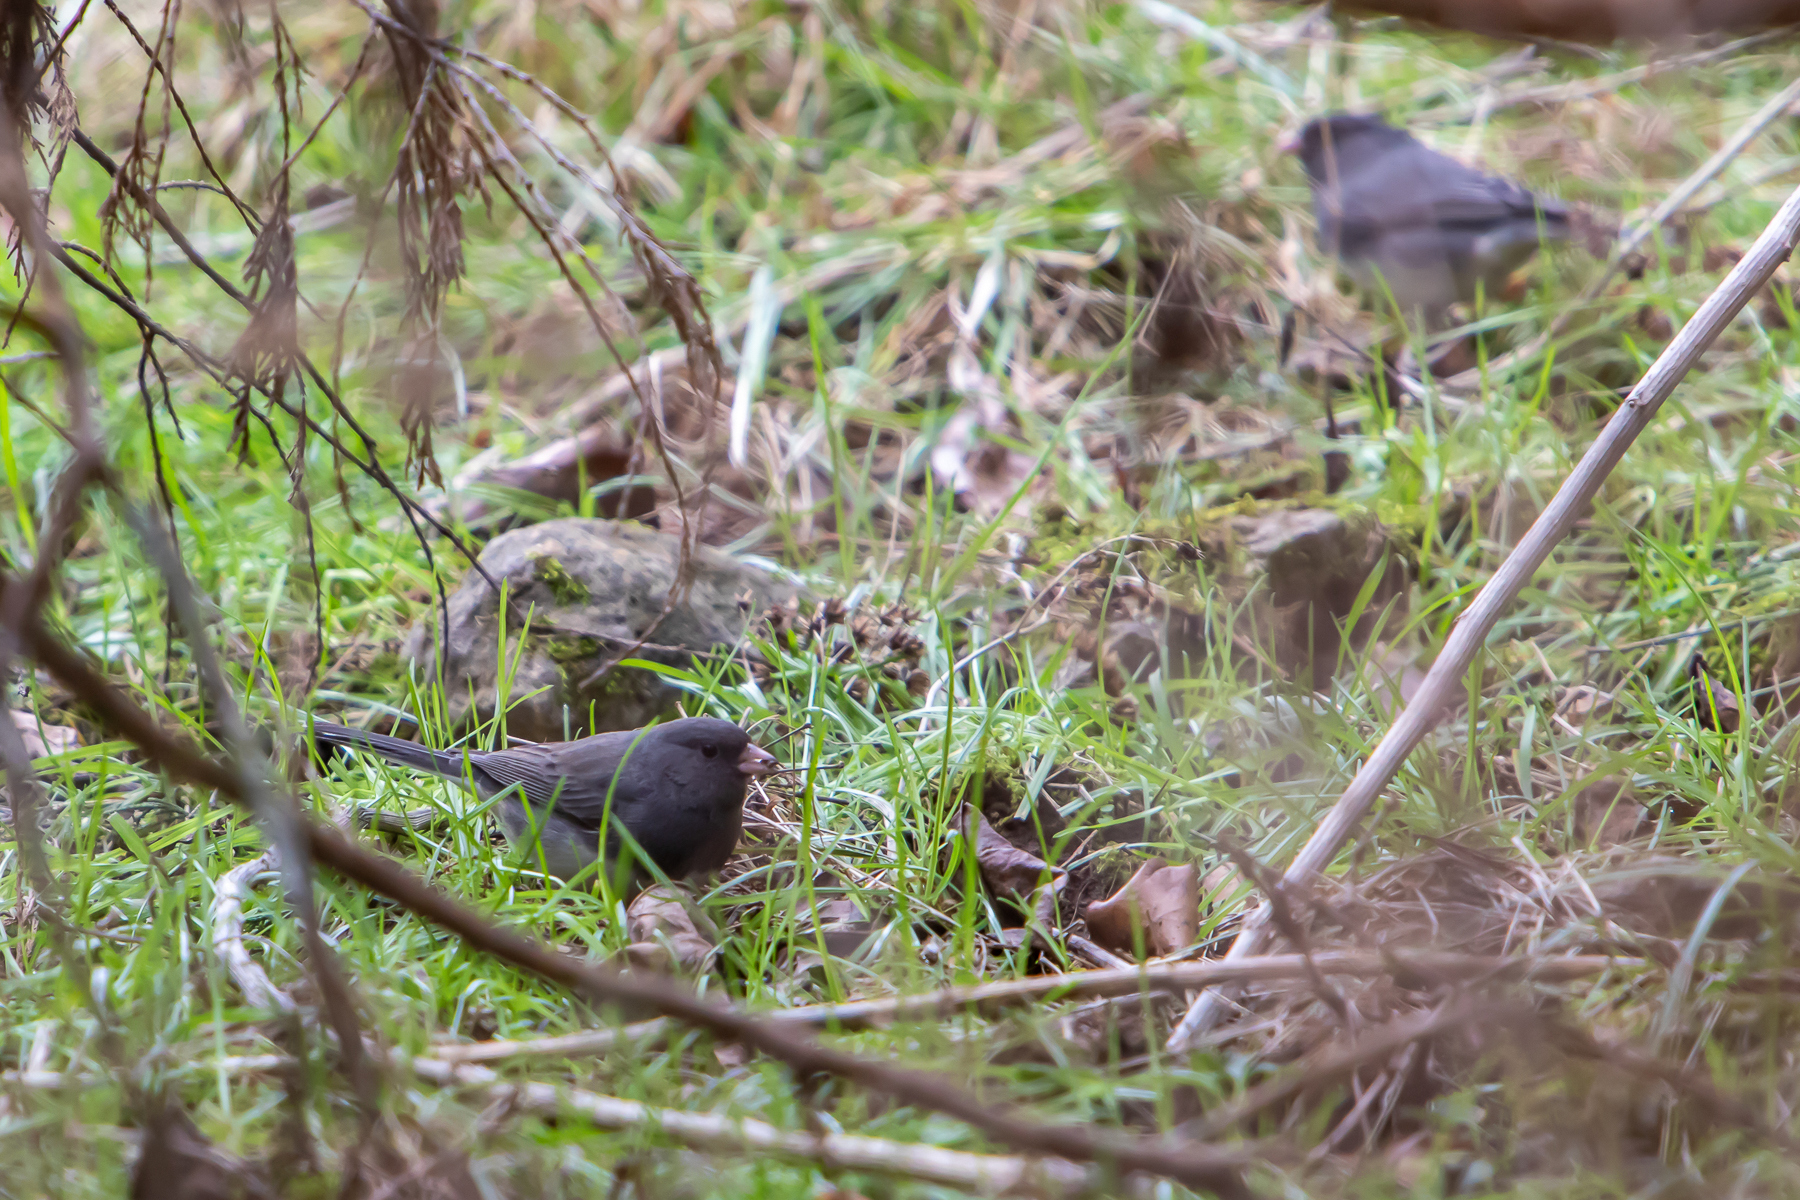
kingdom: Animalia
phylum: Chordata
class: Aves
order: Passeriformes
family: Passerellidae
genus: Junco
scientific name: Junco hyemalis
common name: Dark-eyed junco
